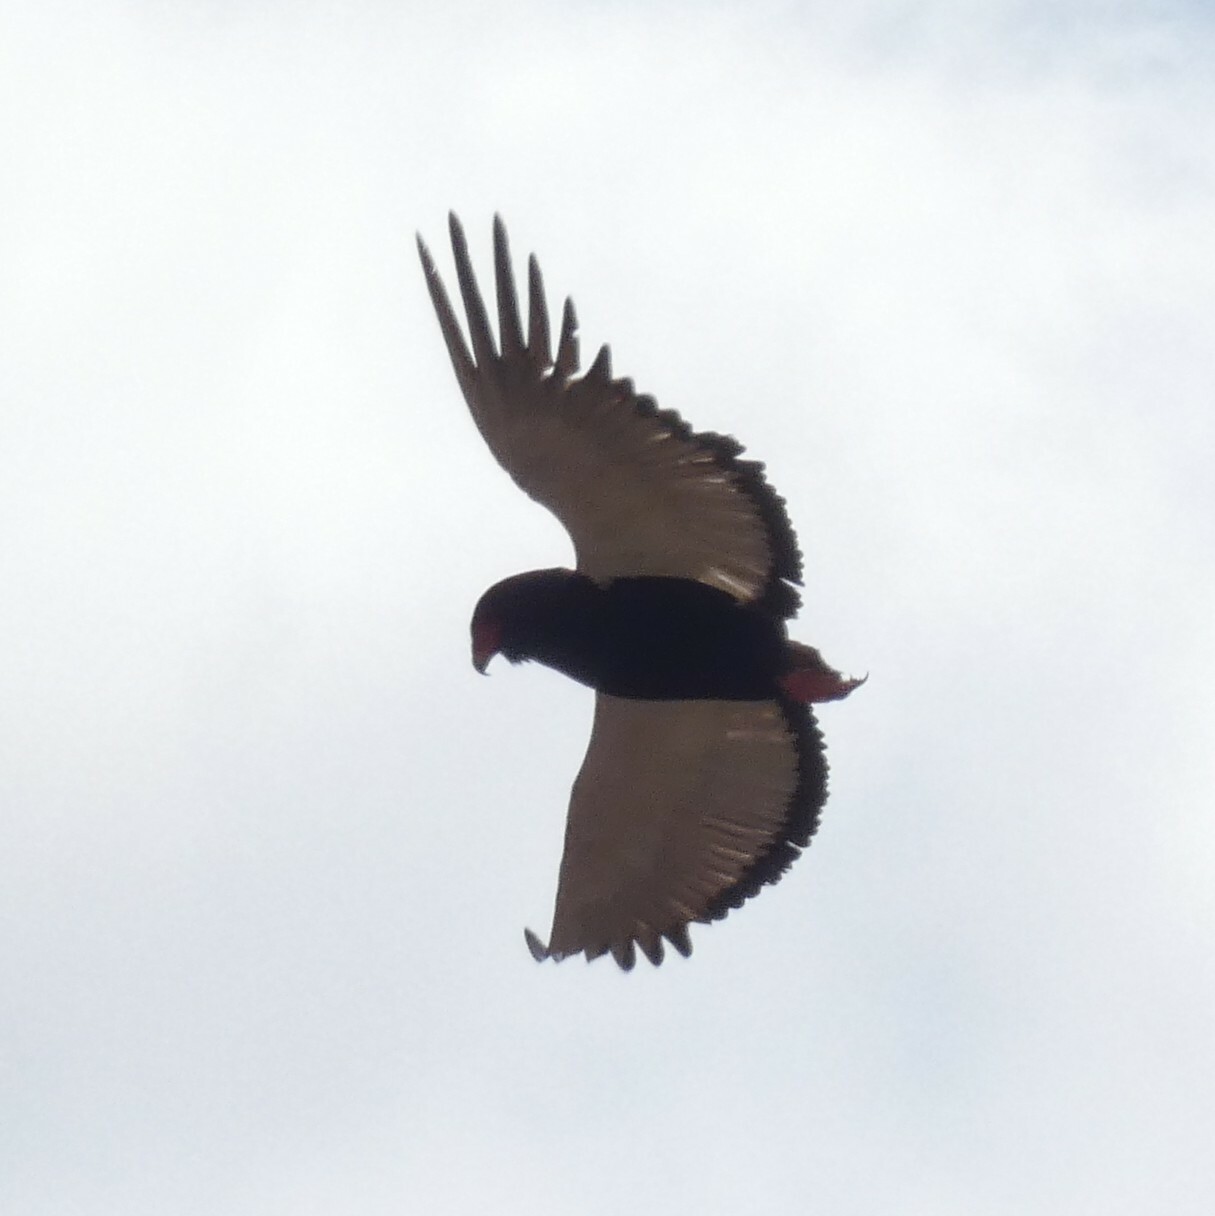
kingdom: Animalia
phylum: Chordata
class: Aves
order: Accipitriformes
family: Accipitridae
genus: Terathopius
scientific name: Terathopius ecaudatus
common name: Bateleur
